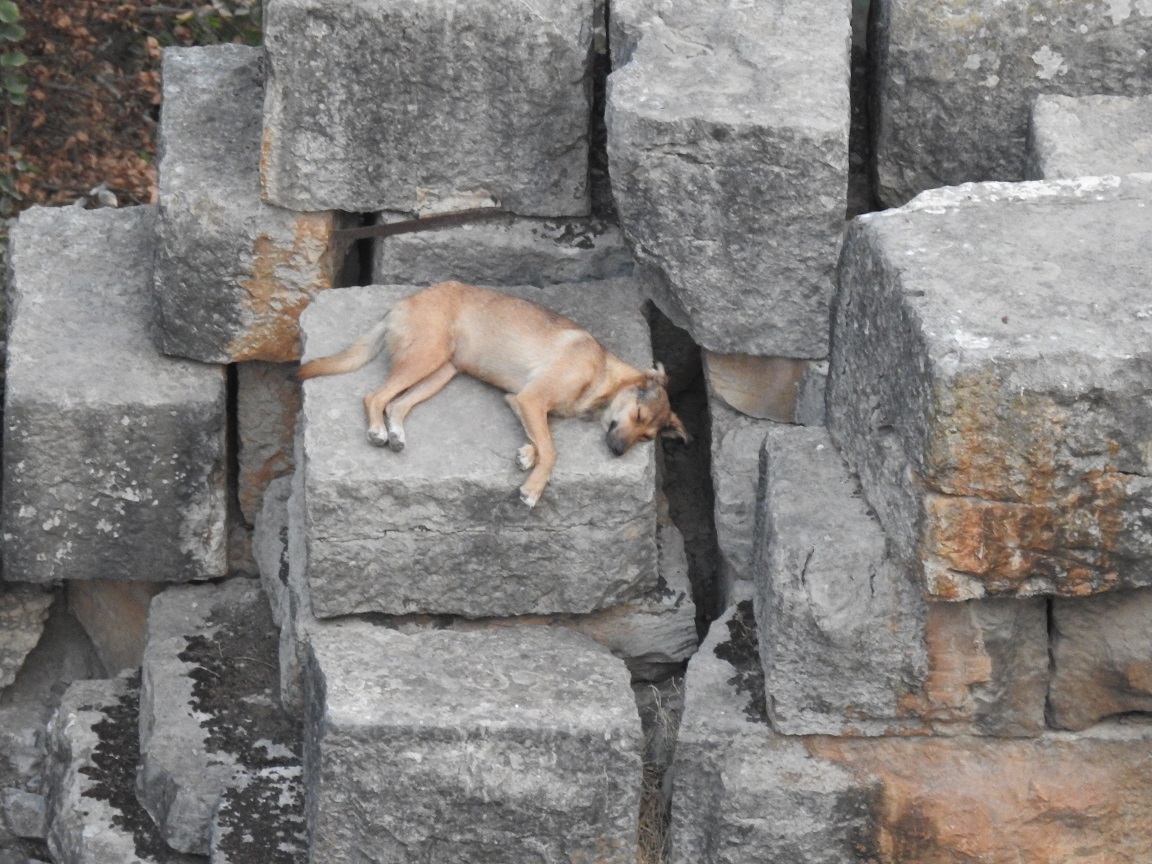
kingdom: Animalia
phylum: Chordata
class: Mammalia
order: Carnivora
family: Canidae
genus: Canis
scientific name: Canis lupus
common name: Gray wolf
